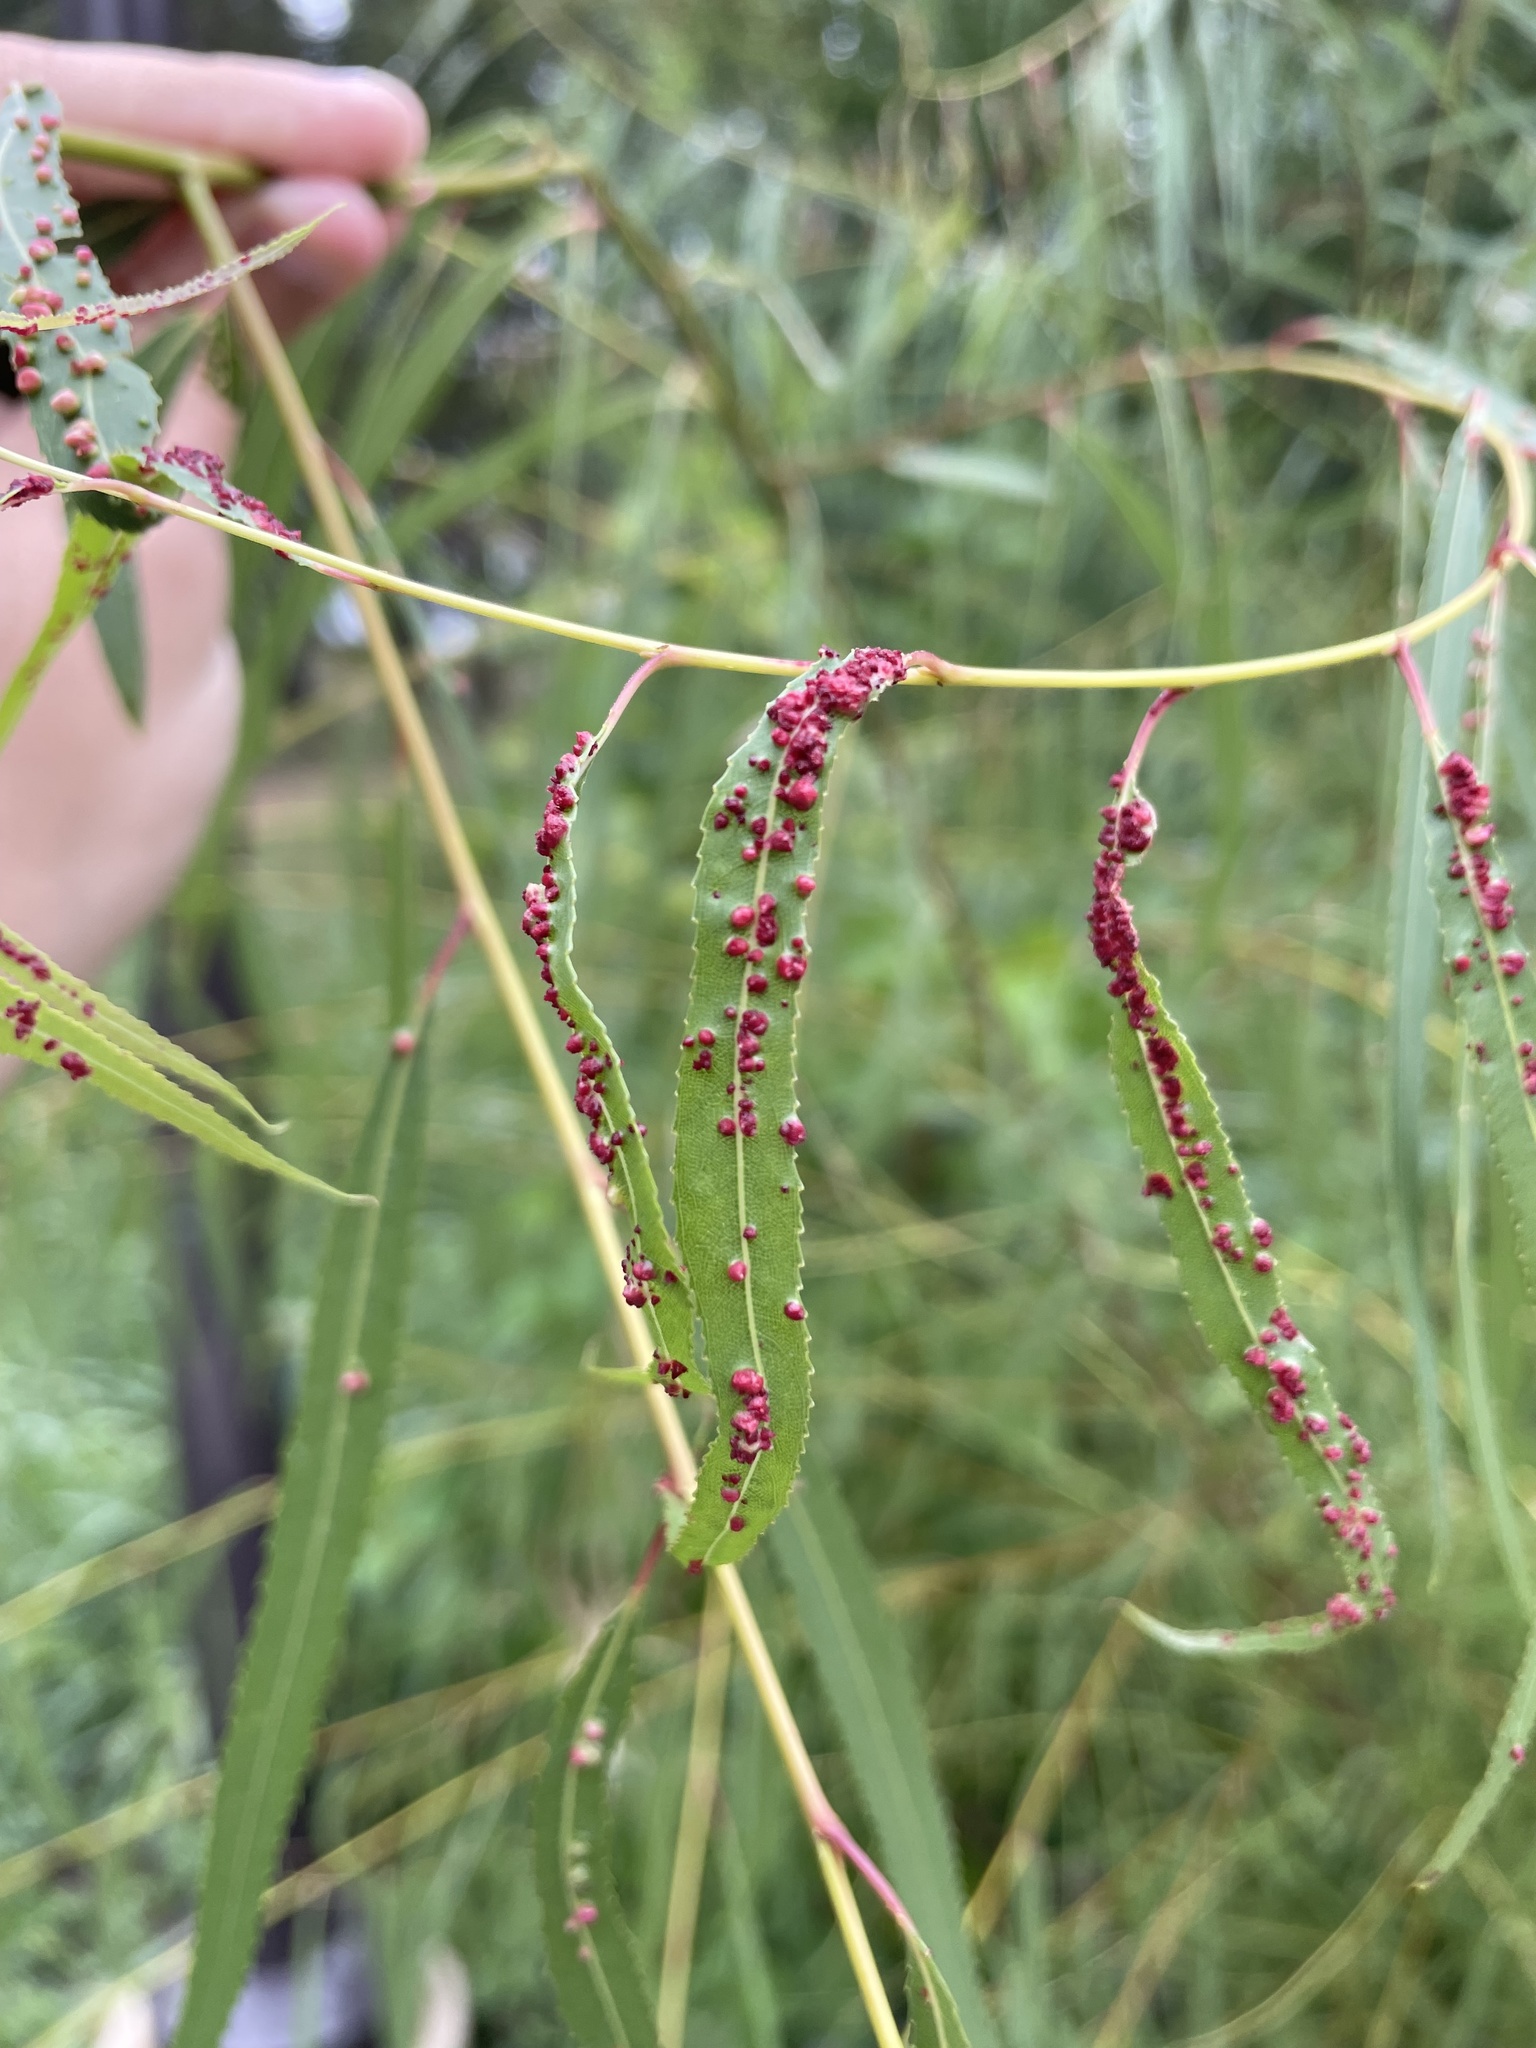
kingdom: Animalia
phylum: Arthropoda
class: Arachnida
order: Trombidiformes
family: Eriophyidae
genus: Aculus
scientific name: Aculus tetanothrix
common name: Willow bead gall mite
